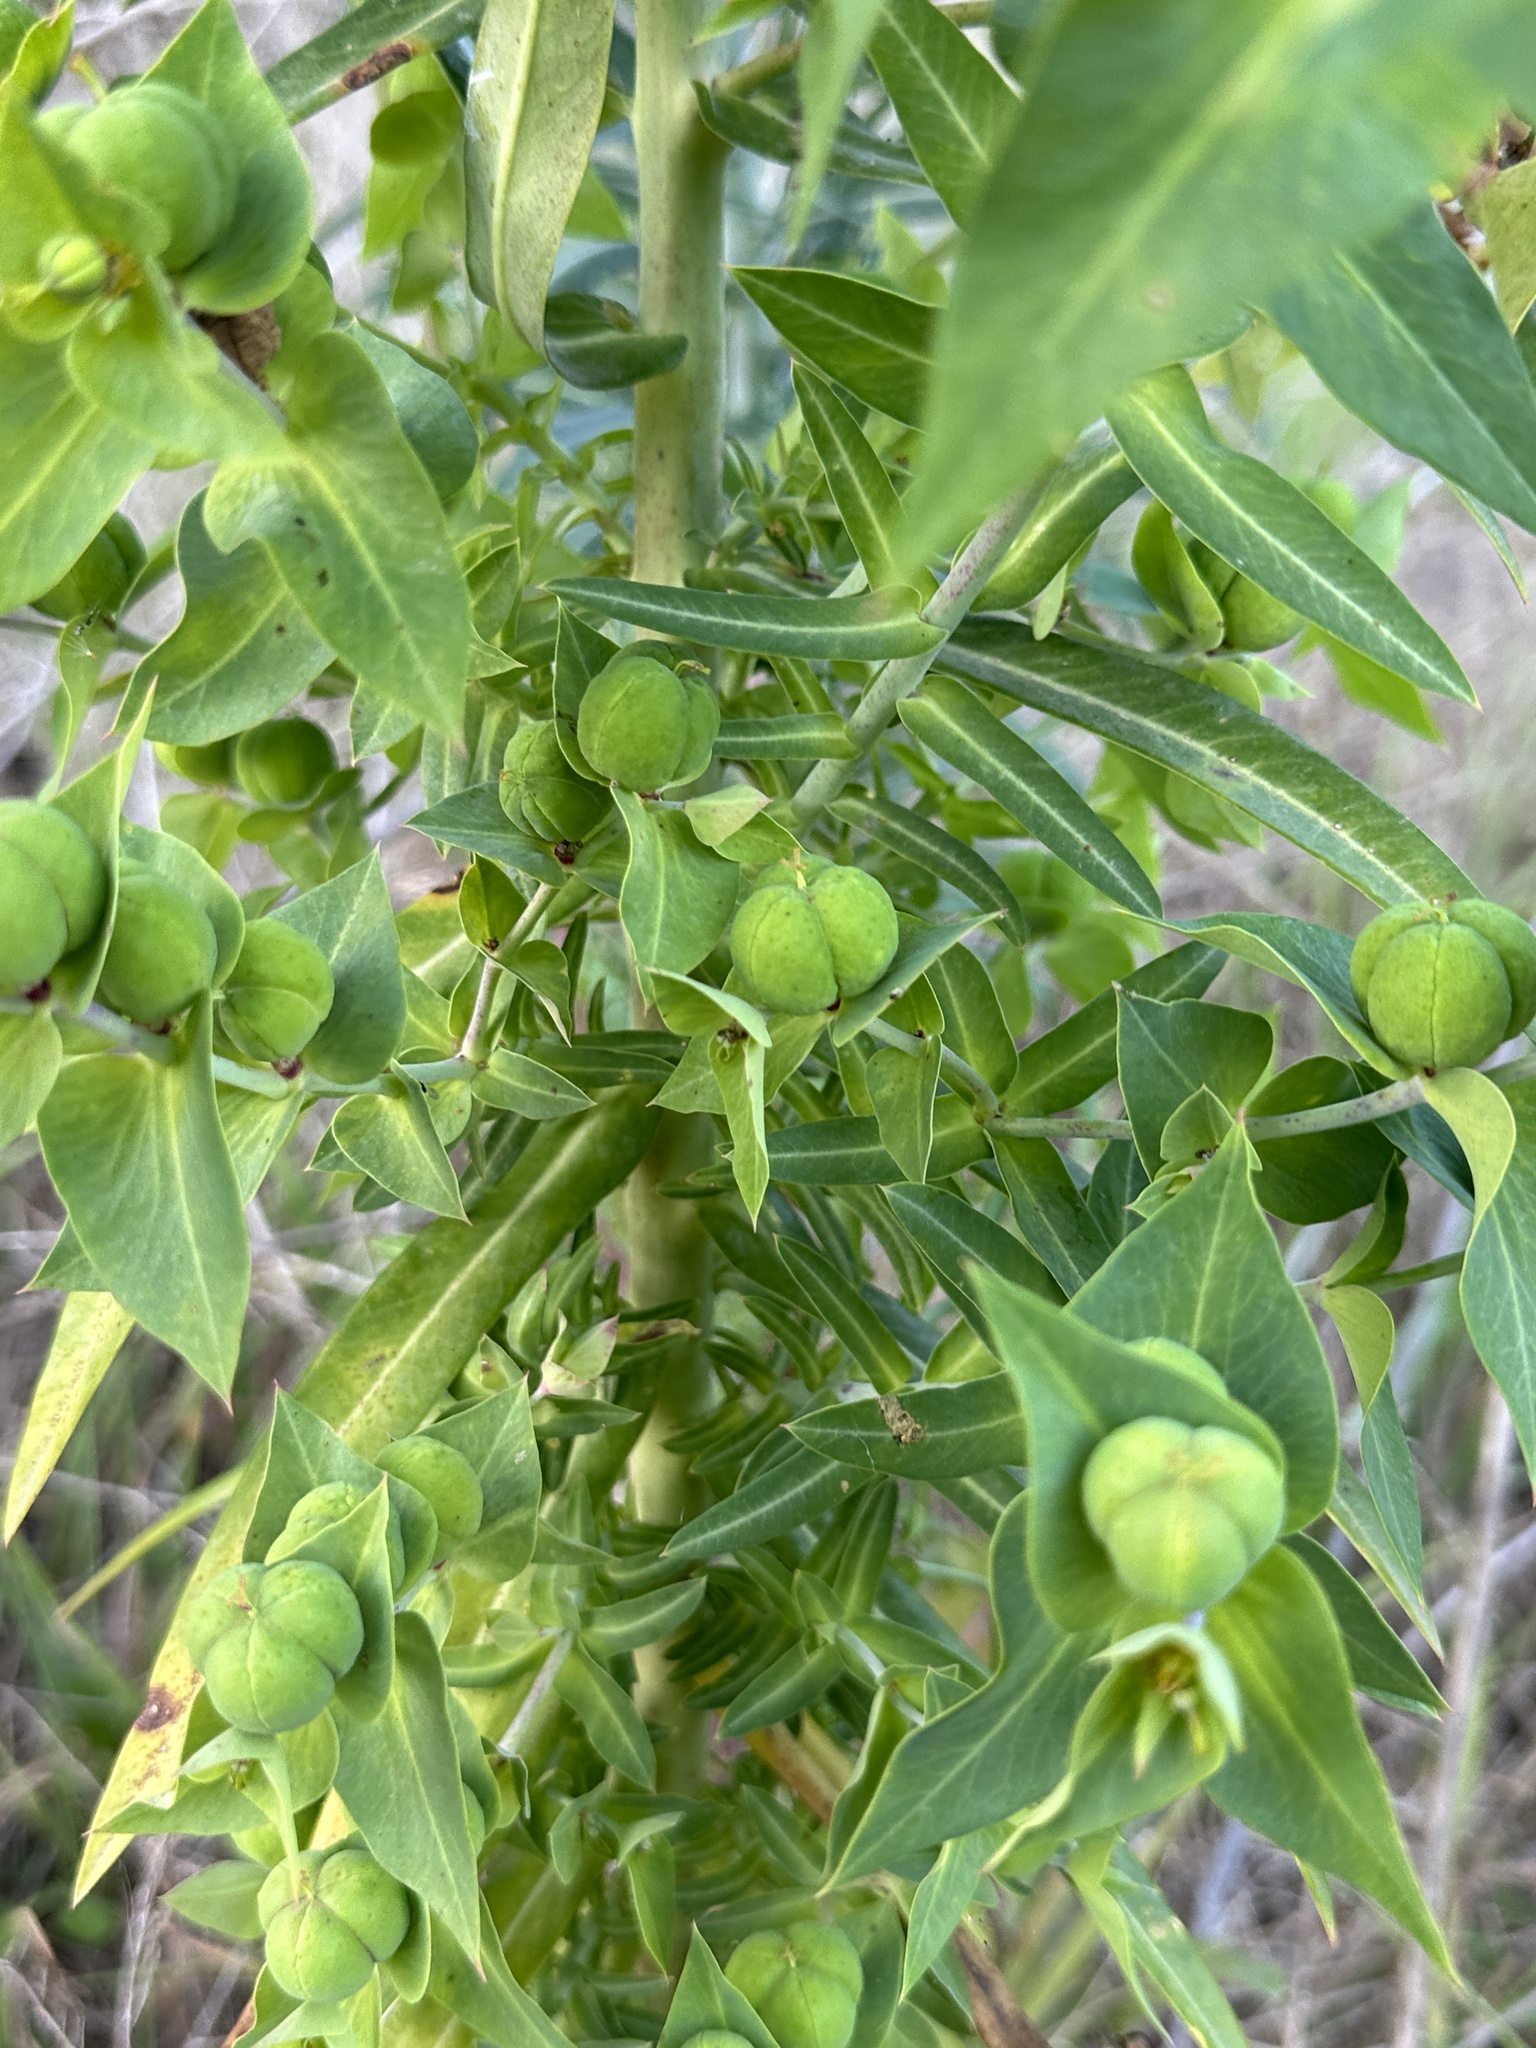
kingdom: Plantae
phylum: Tracheophyta
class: Magnoliopsida
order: Malpighiales
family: Euphorbiaceae
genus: Euphorbia
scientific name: Euphorbia lathyris
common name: Caper spurge
